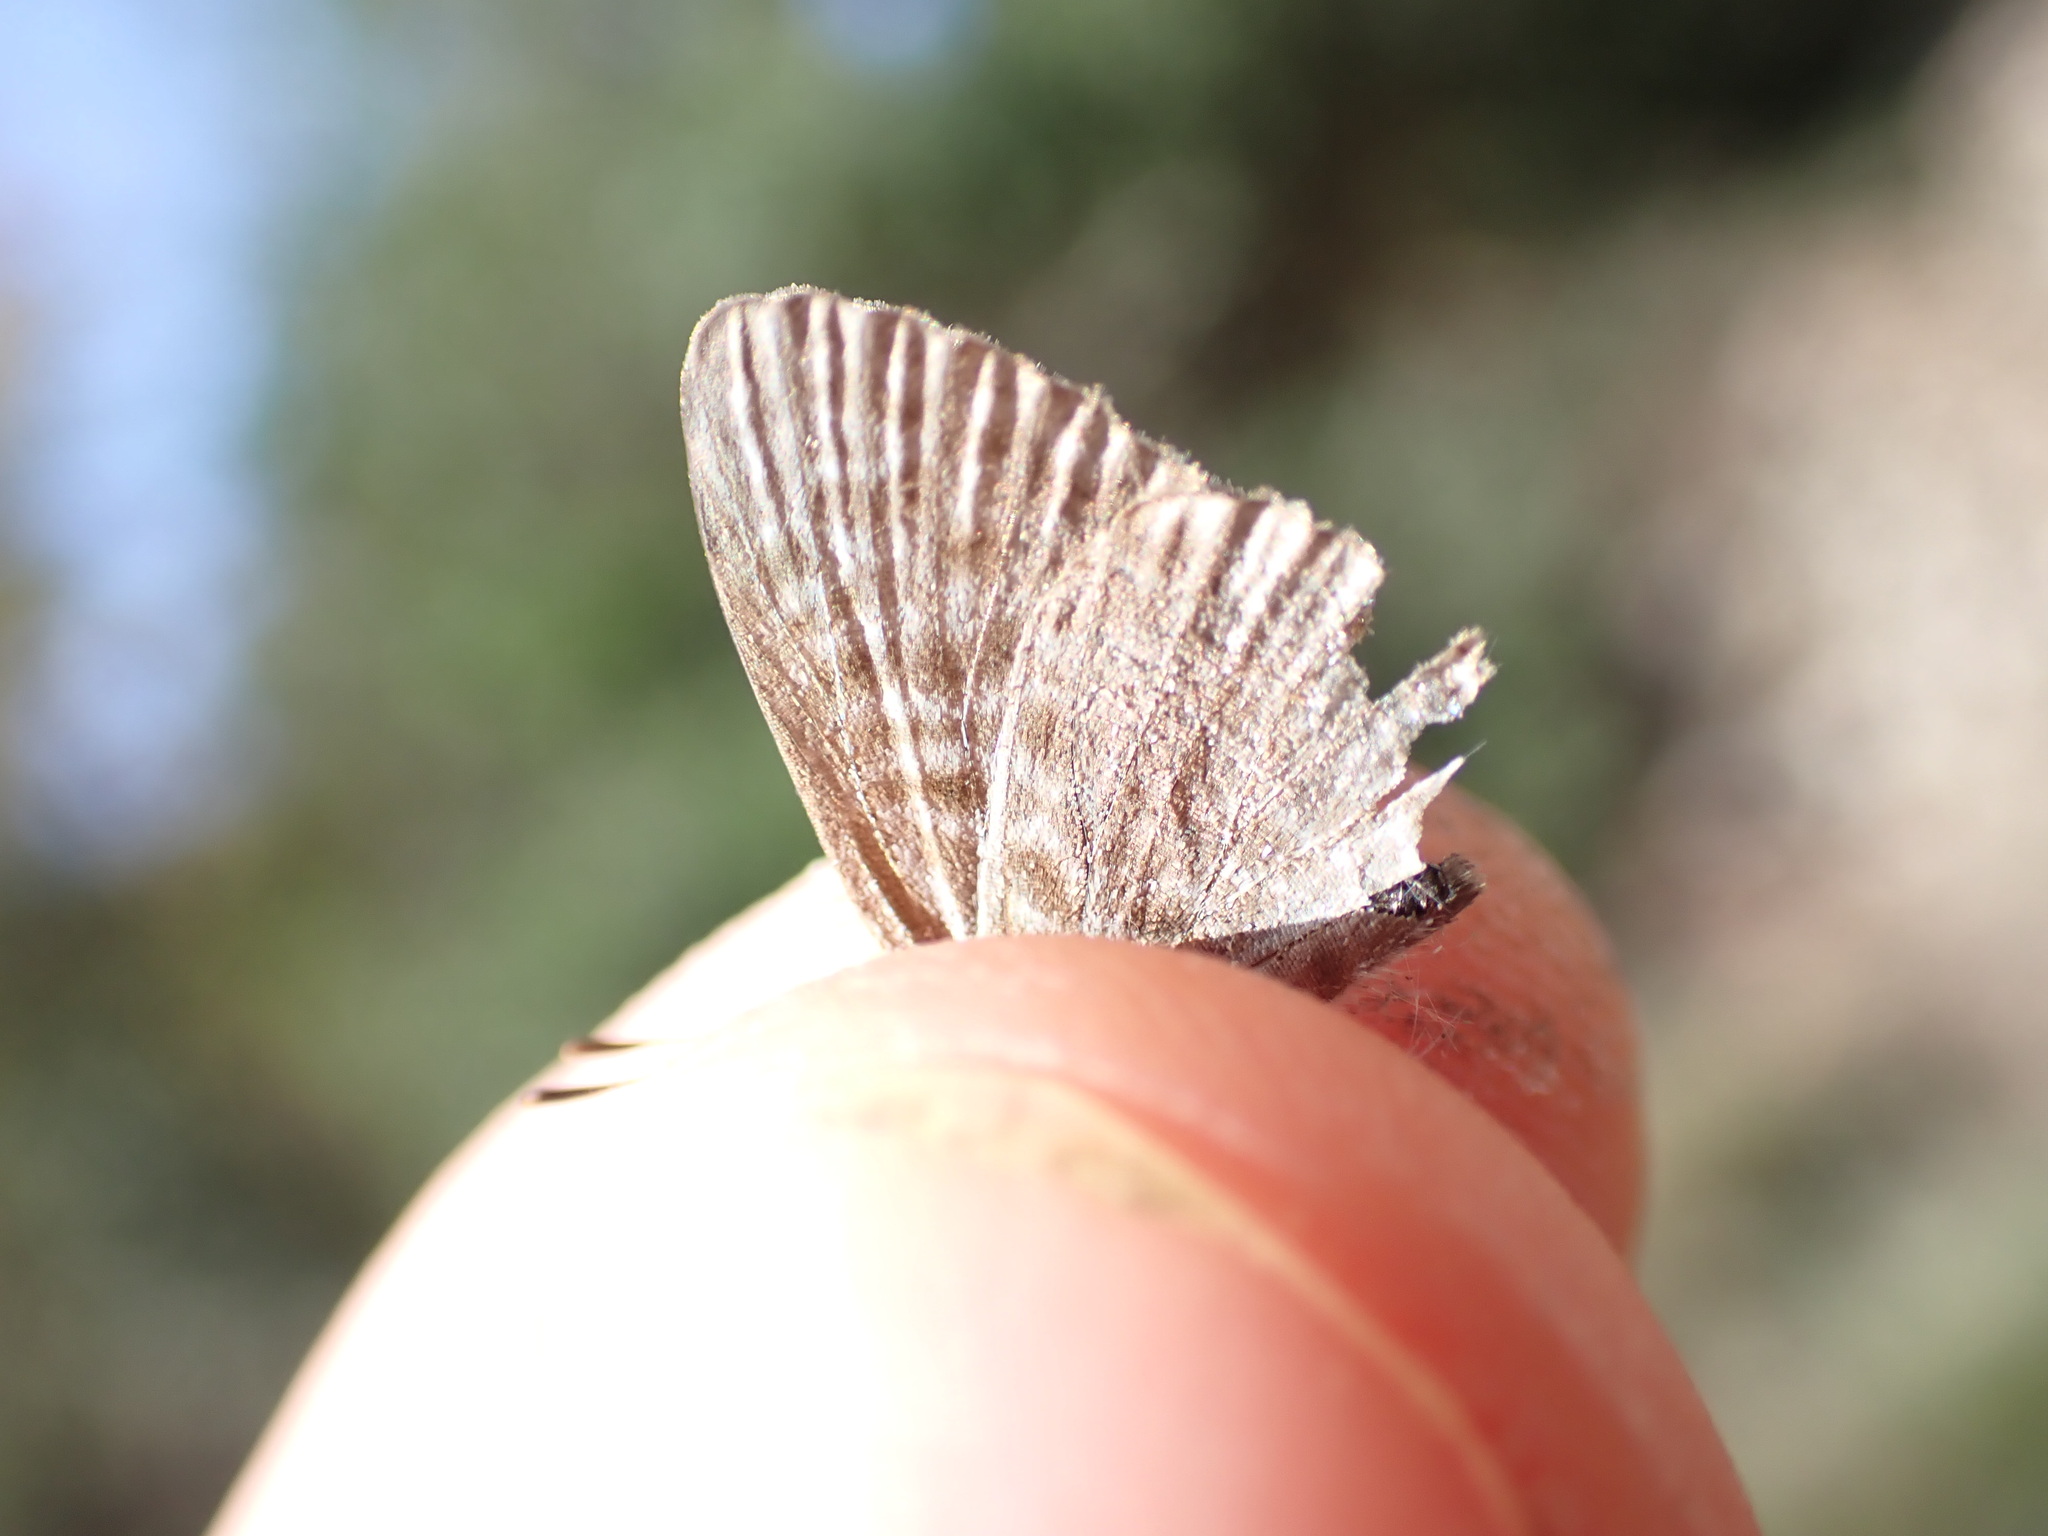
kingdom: Animalia
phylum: Arthropoda
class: Insecta
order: Lepidoptera
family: Lycaenidae
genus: Leptotes
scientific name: Leptotes pirithous
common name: Lang's short-tailed blue
